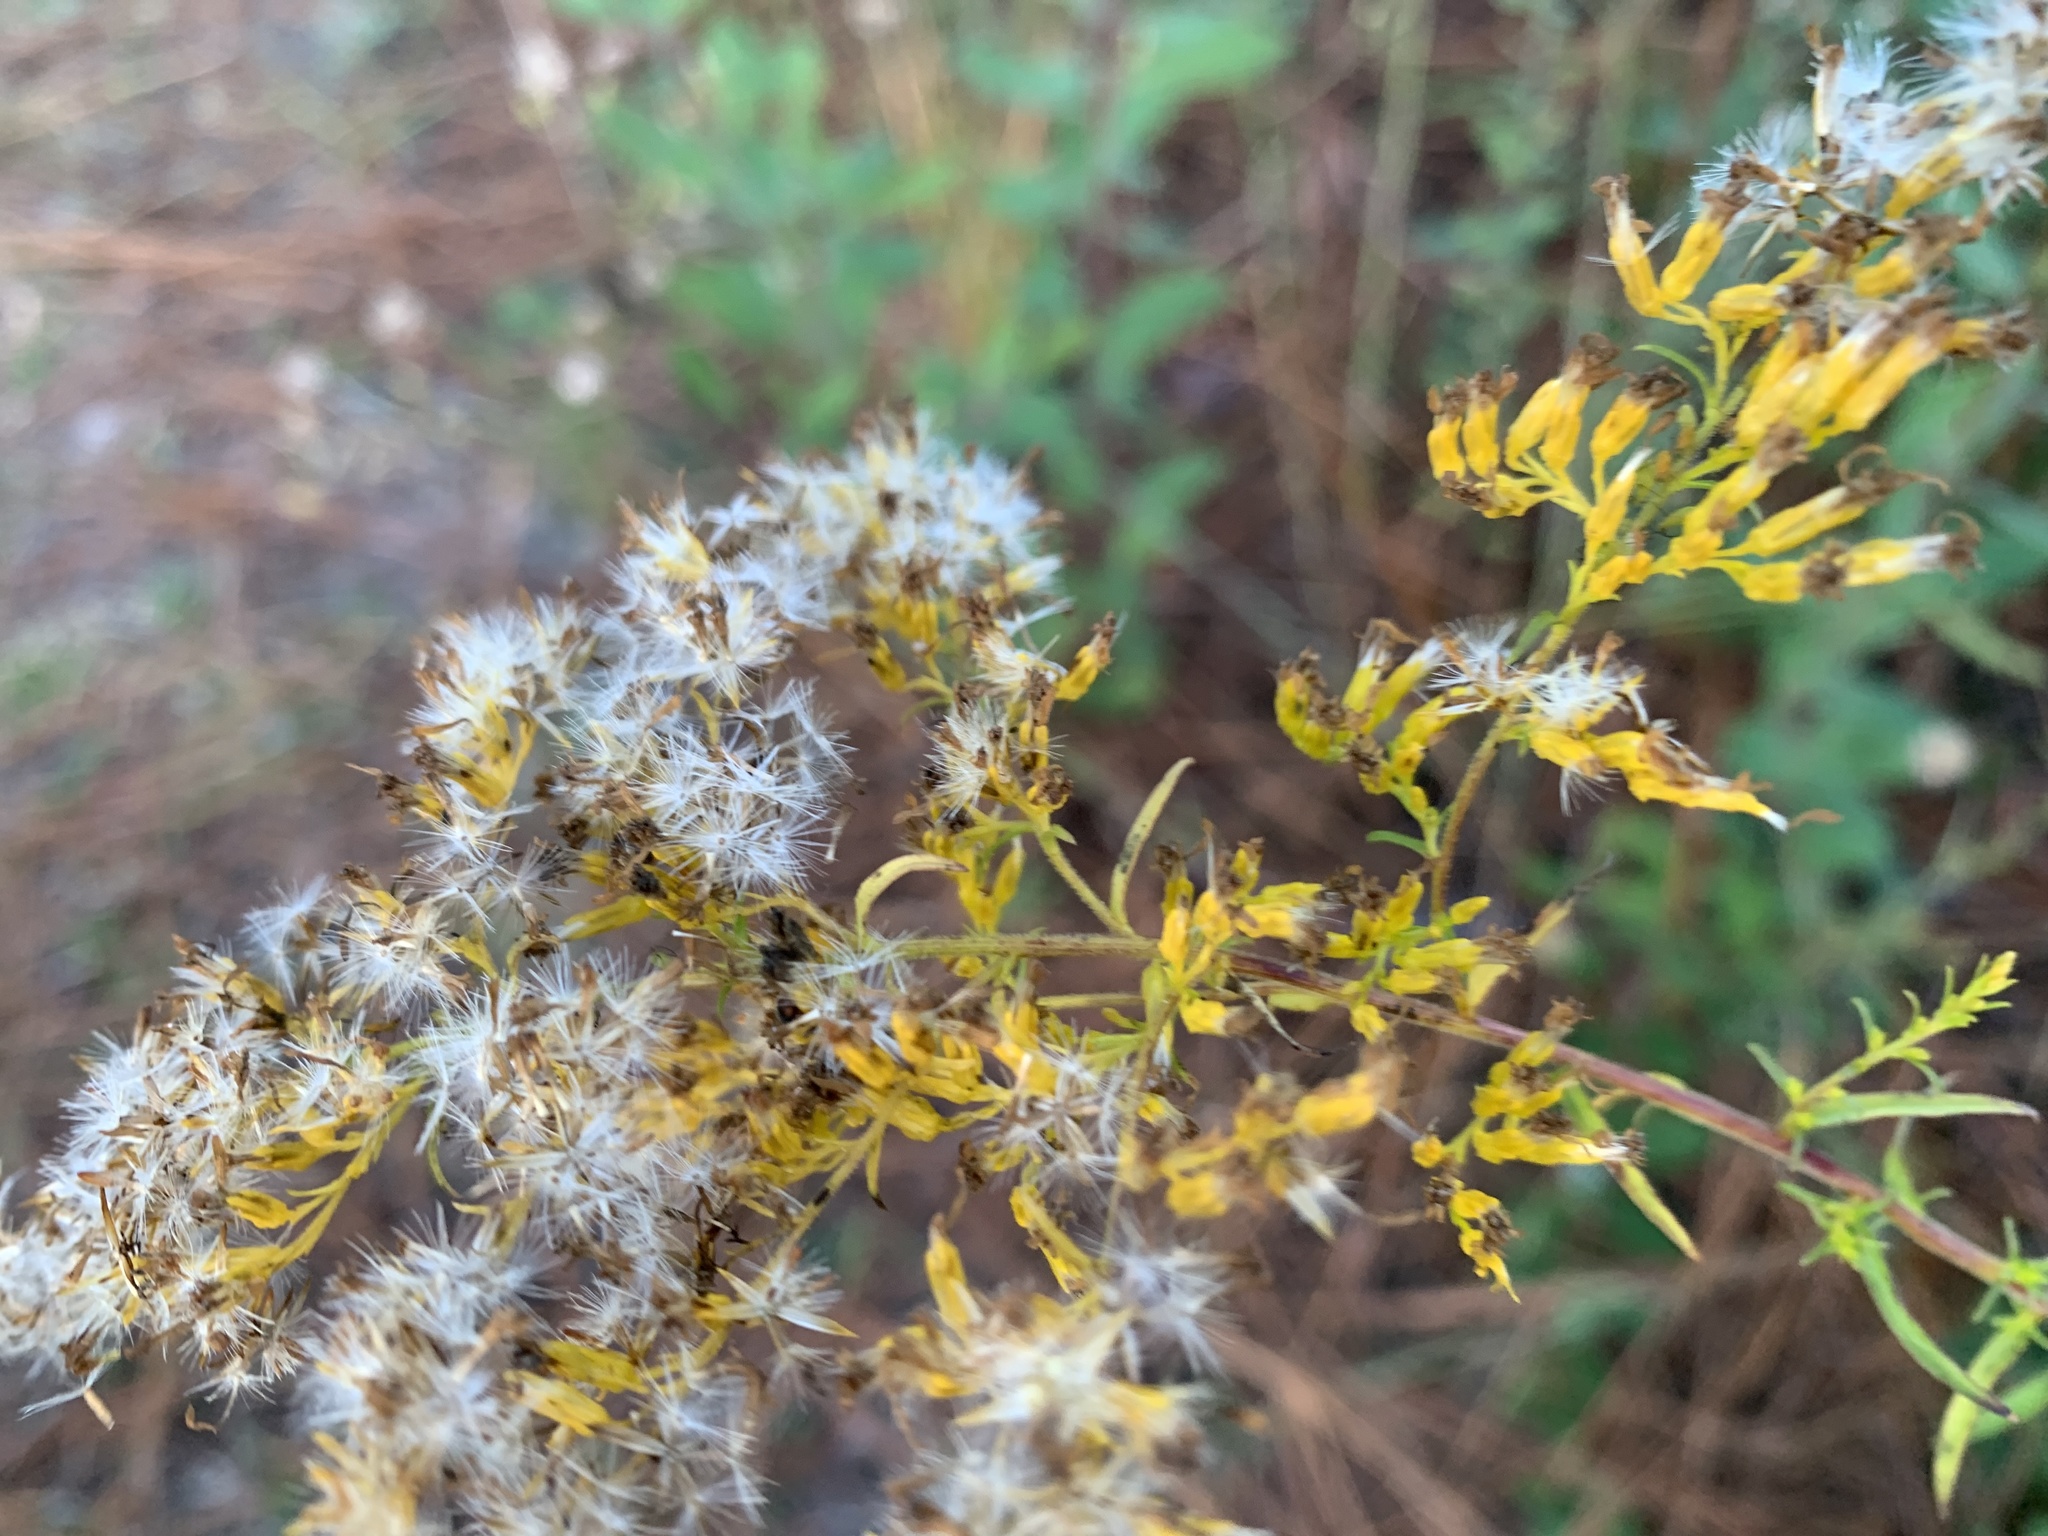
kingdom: Plantae
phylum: Tracheophyta
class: Magnoliopsida
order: Asterales
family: Asteraceae
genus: Solidago
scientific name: Solidago odora
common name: Anise-scented goldenrod
